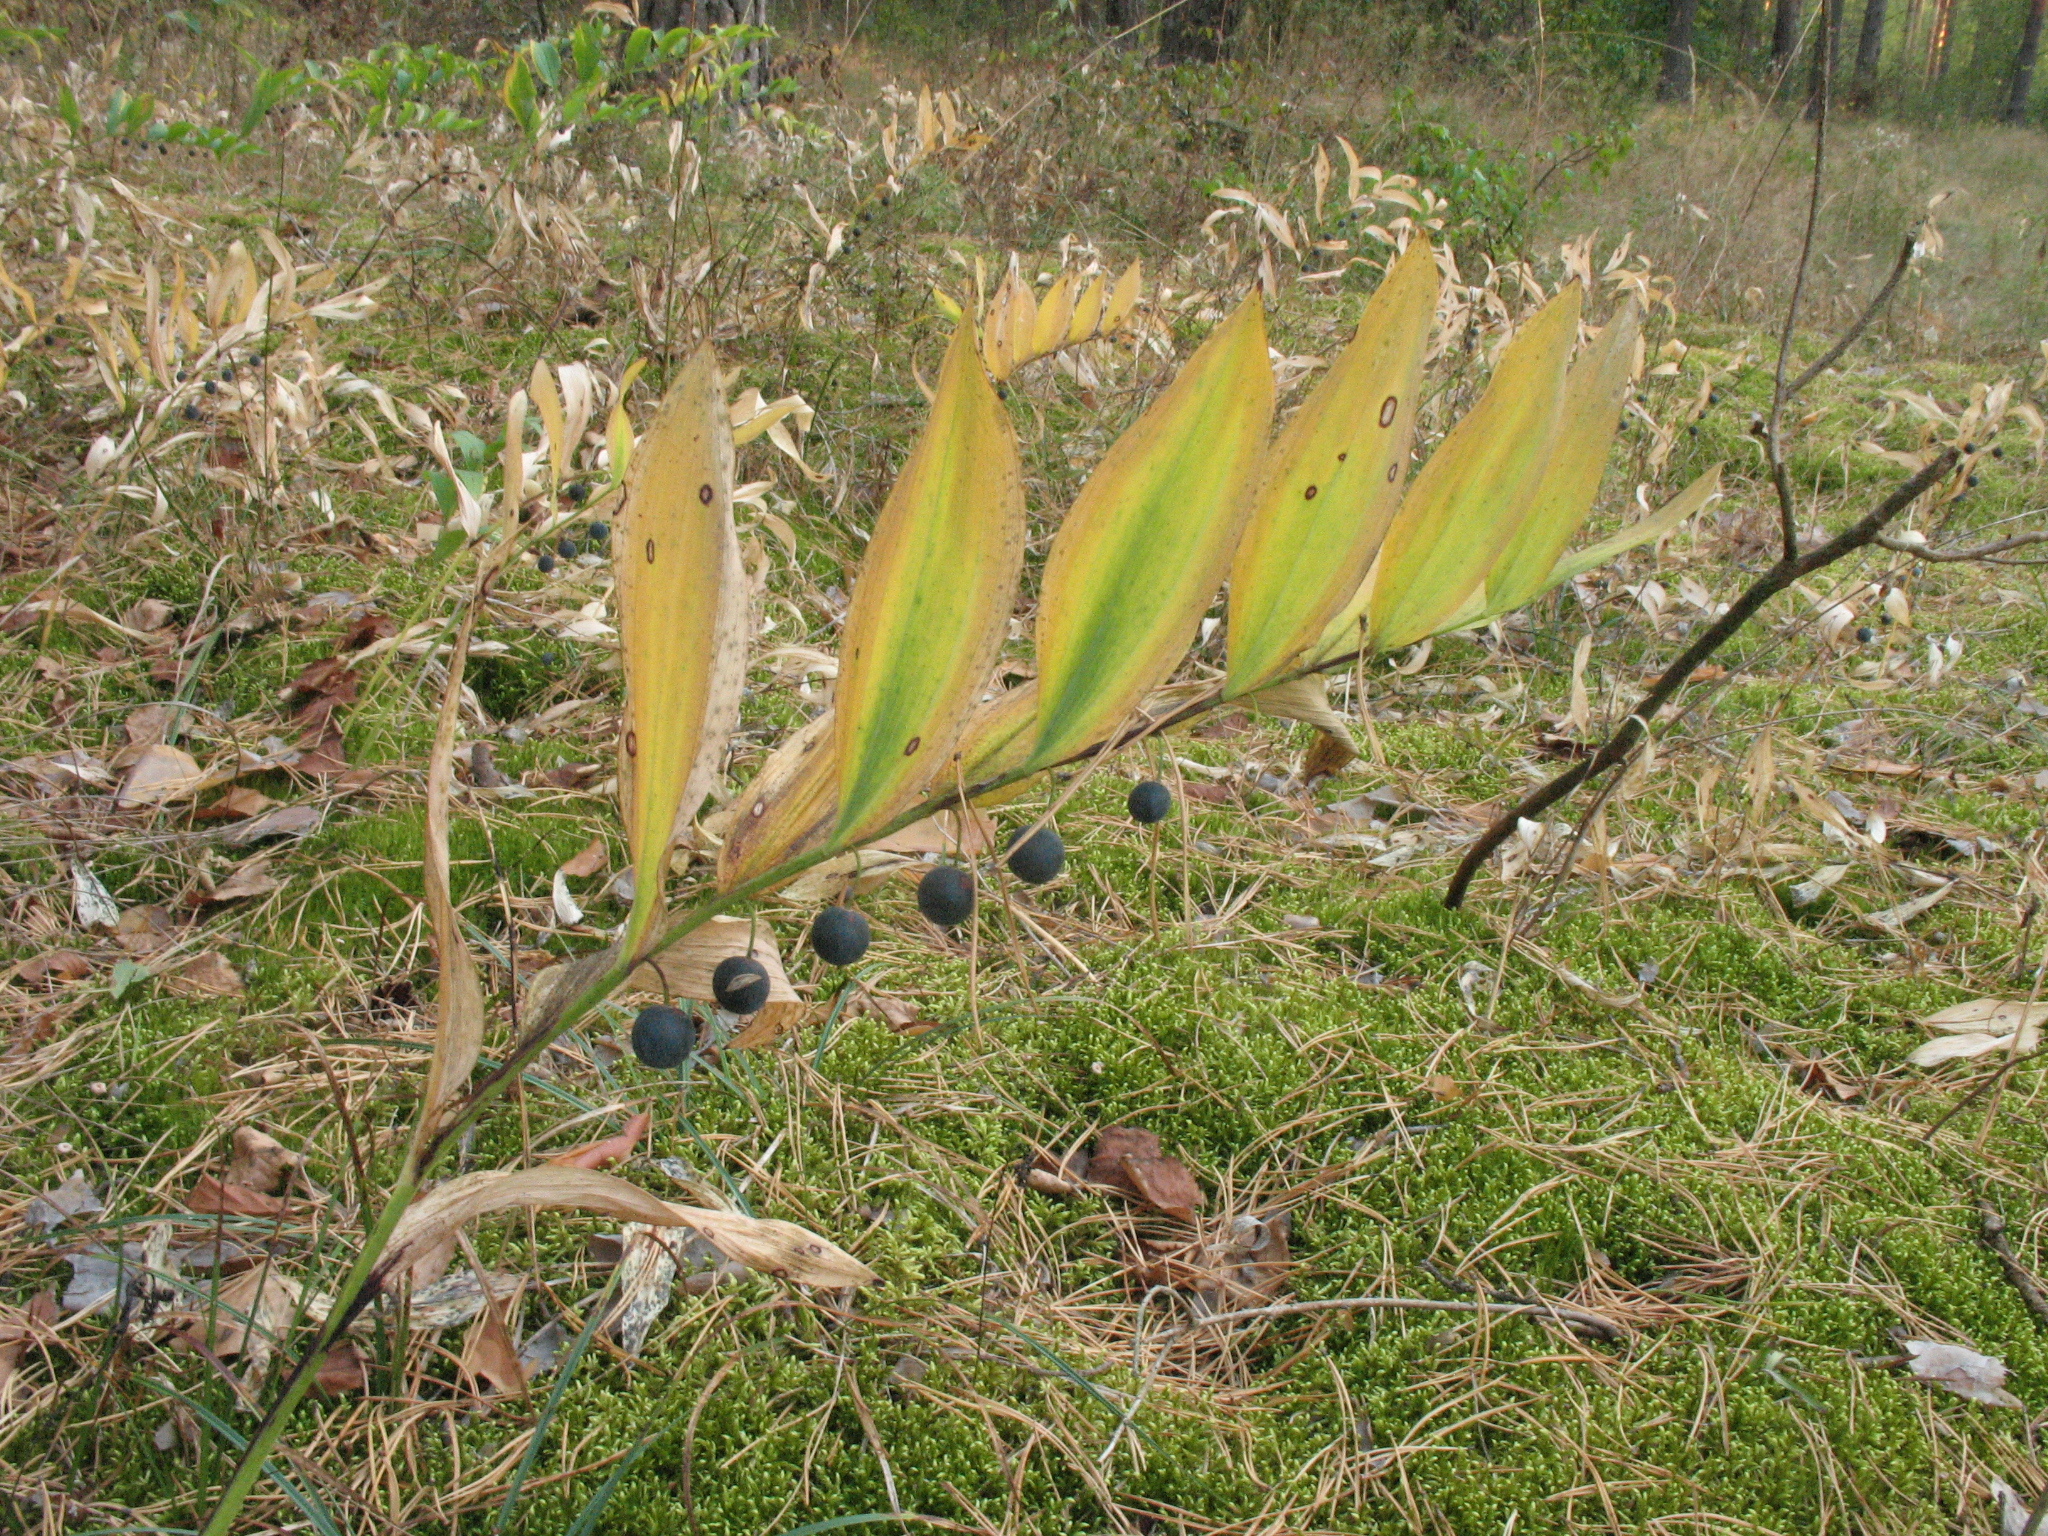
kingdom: Plantae
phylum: Tracheophyta
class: Liliopsida
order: Asparagales
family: Asparagaceae
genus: Polygonatum
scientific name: Polygonatum odoratum
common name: Angular solomon's-seal
